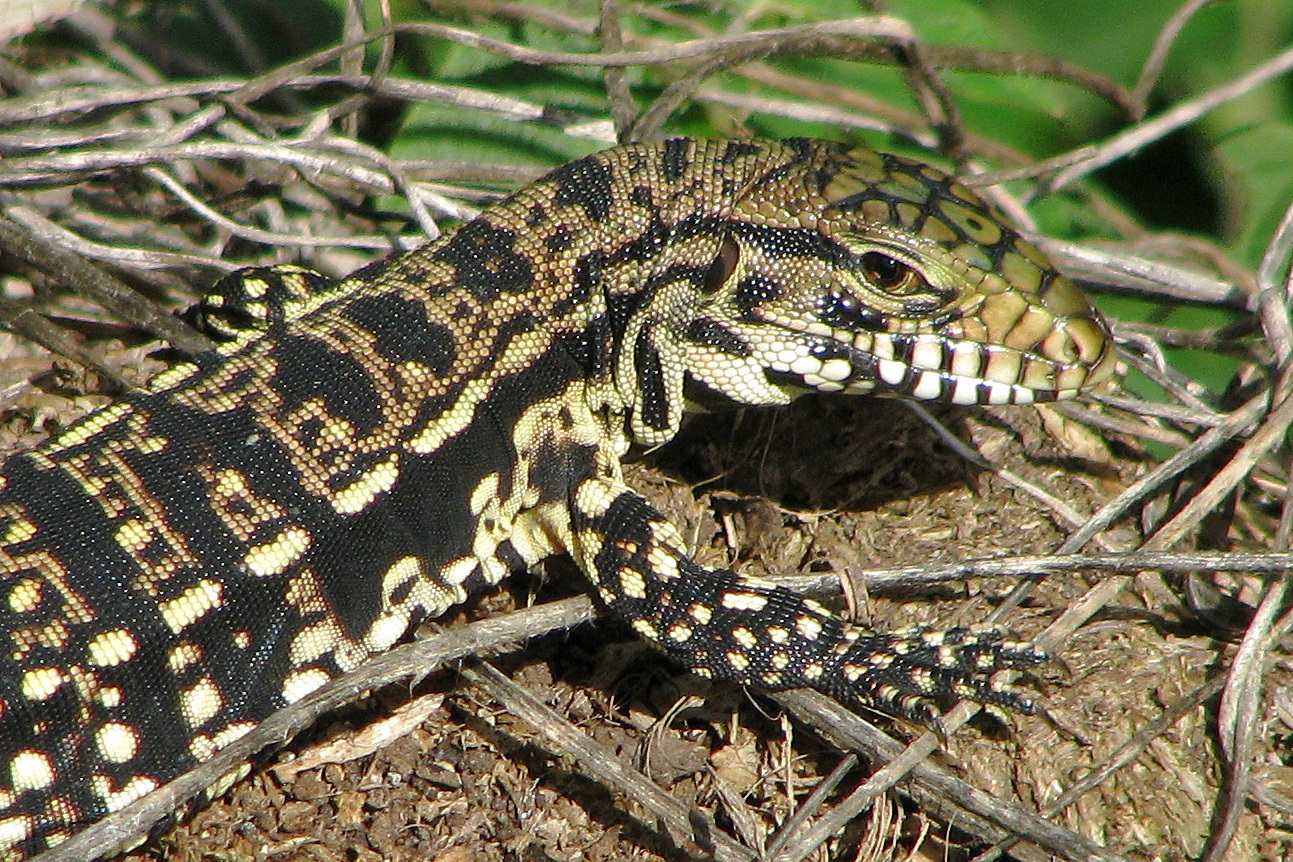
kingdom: Animalia
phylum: Chordata
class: Squamata
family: Teiidae
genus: Salvator
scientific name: Salvator merianae
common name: Argentine black and white tegu
